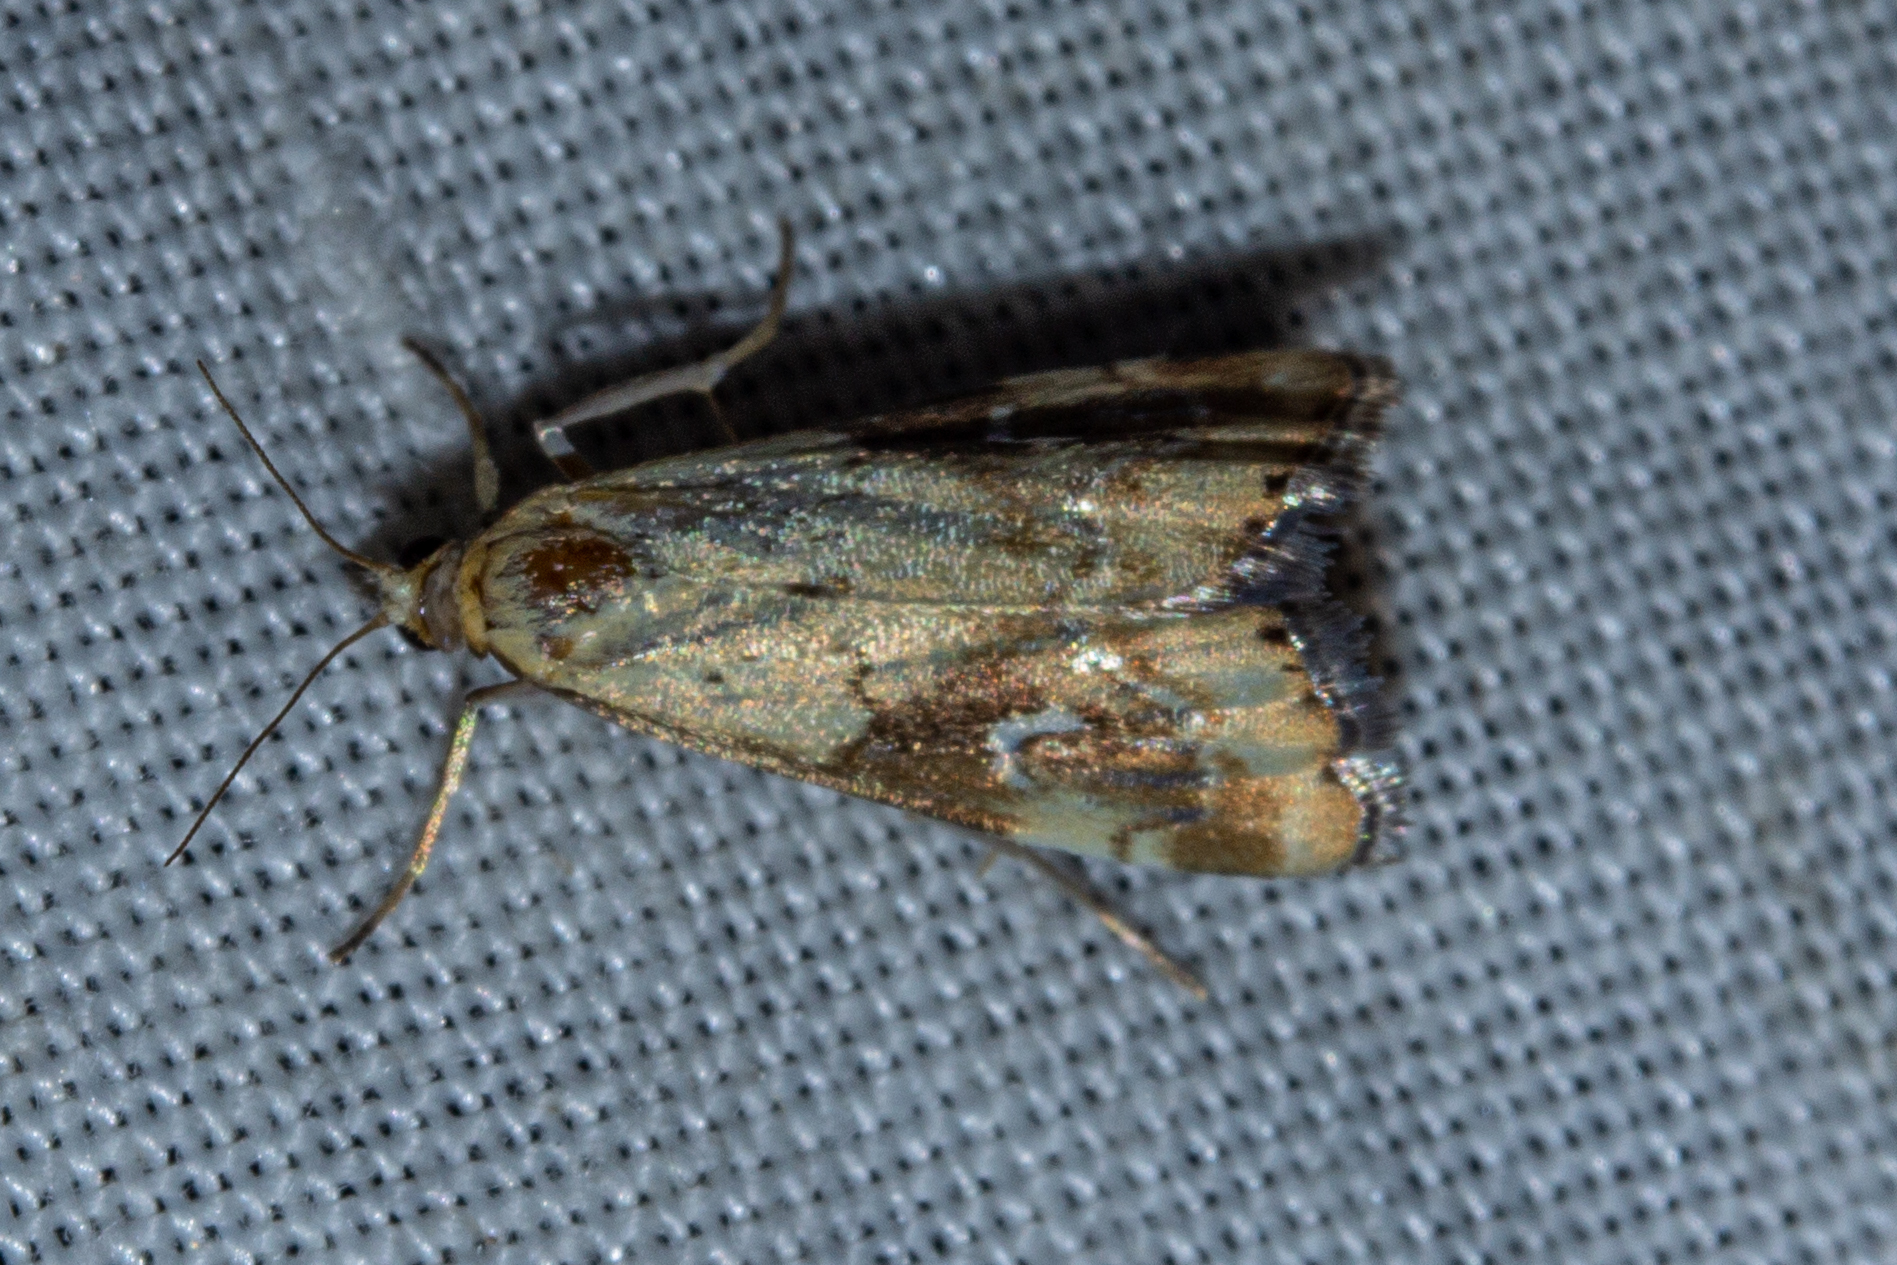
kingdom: Animalia
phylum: Arthropoda
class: Insecta
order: Lepidoptera
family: Crambidae
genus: Glaucocharis
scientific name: Glaucocharis lepidella
